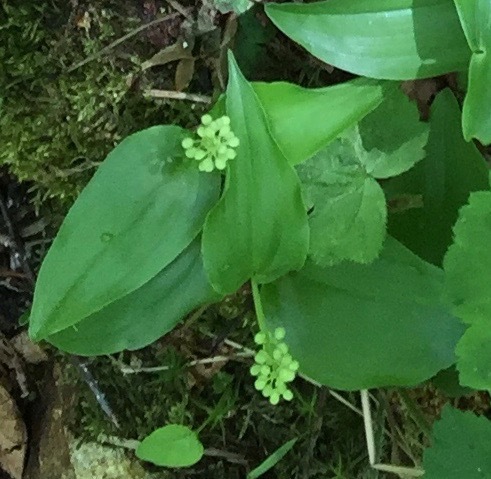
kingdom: Plantae
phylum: Tracheophyta
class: Liliopsida
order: Asparagales
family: Asparagaceae
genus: Maianthemum
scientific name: Maianthemum canadense
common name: False lily-of-the-valley
